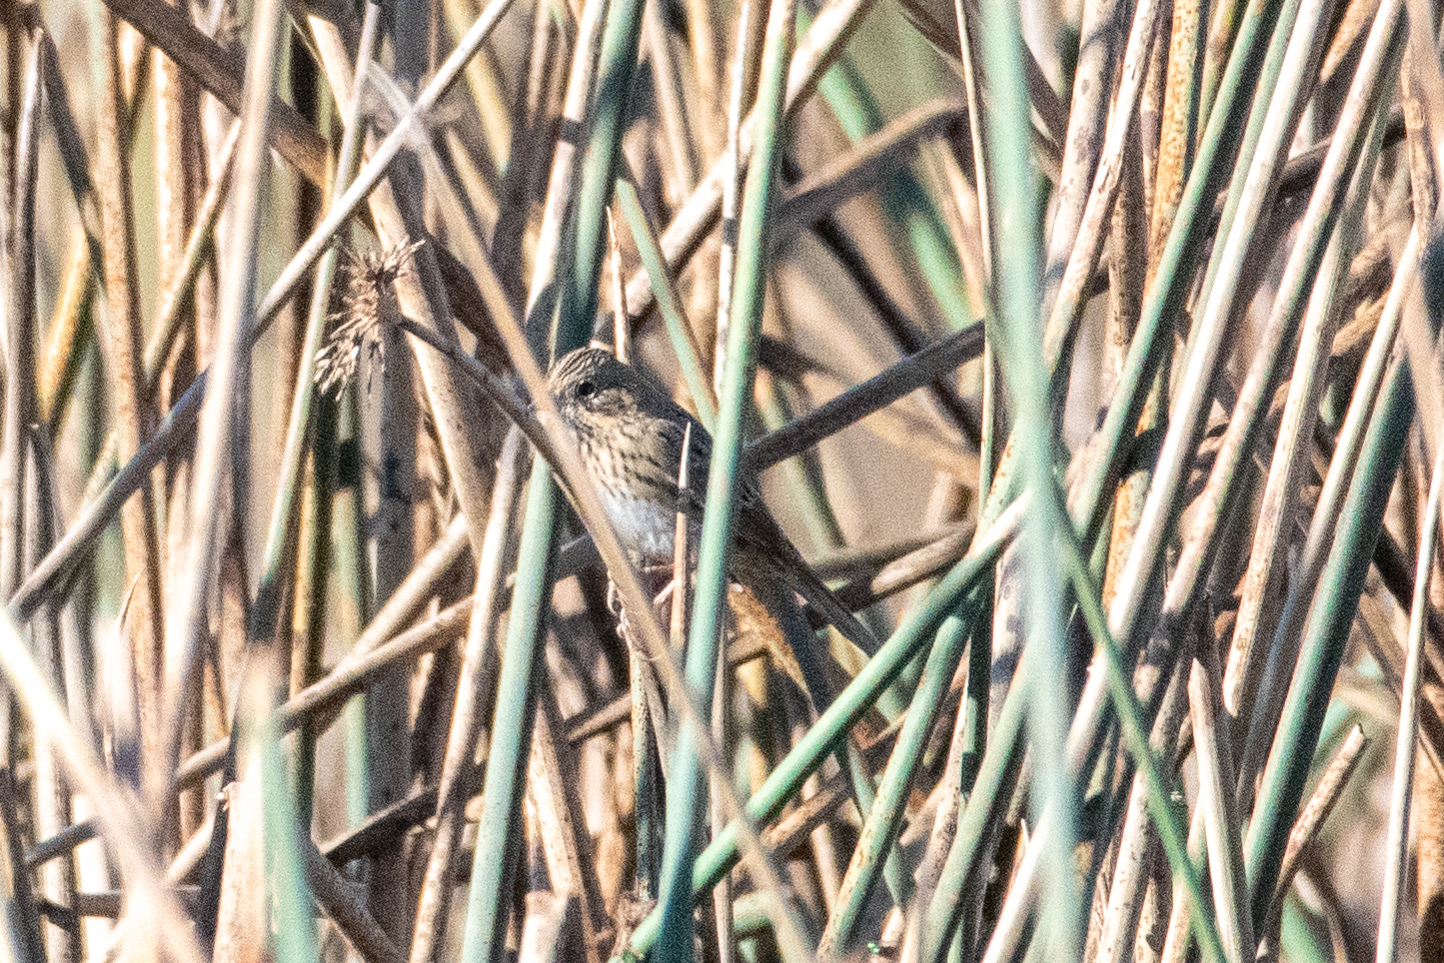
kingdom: Animalia
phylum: Chordata
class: Aves
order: Passeriformes
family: Passerellidae
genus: Melospiza
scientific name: Melospiza lincolnii
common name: Lincoln's sparrow
